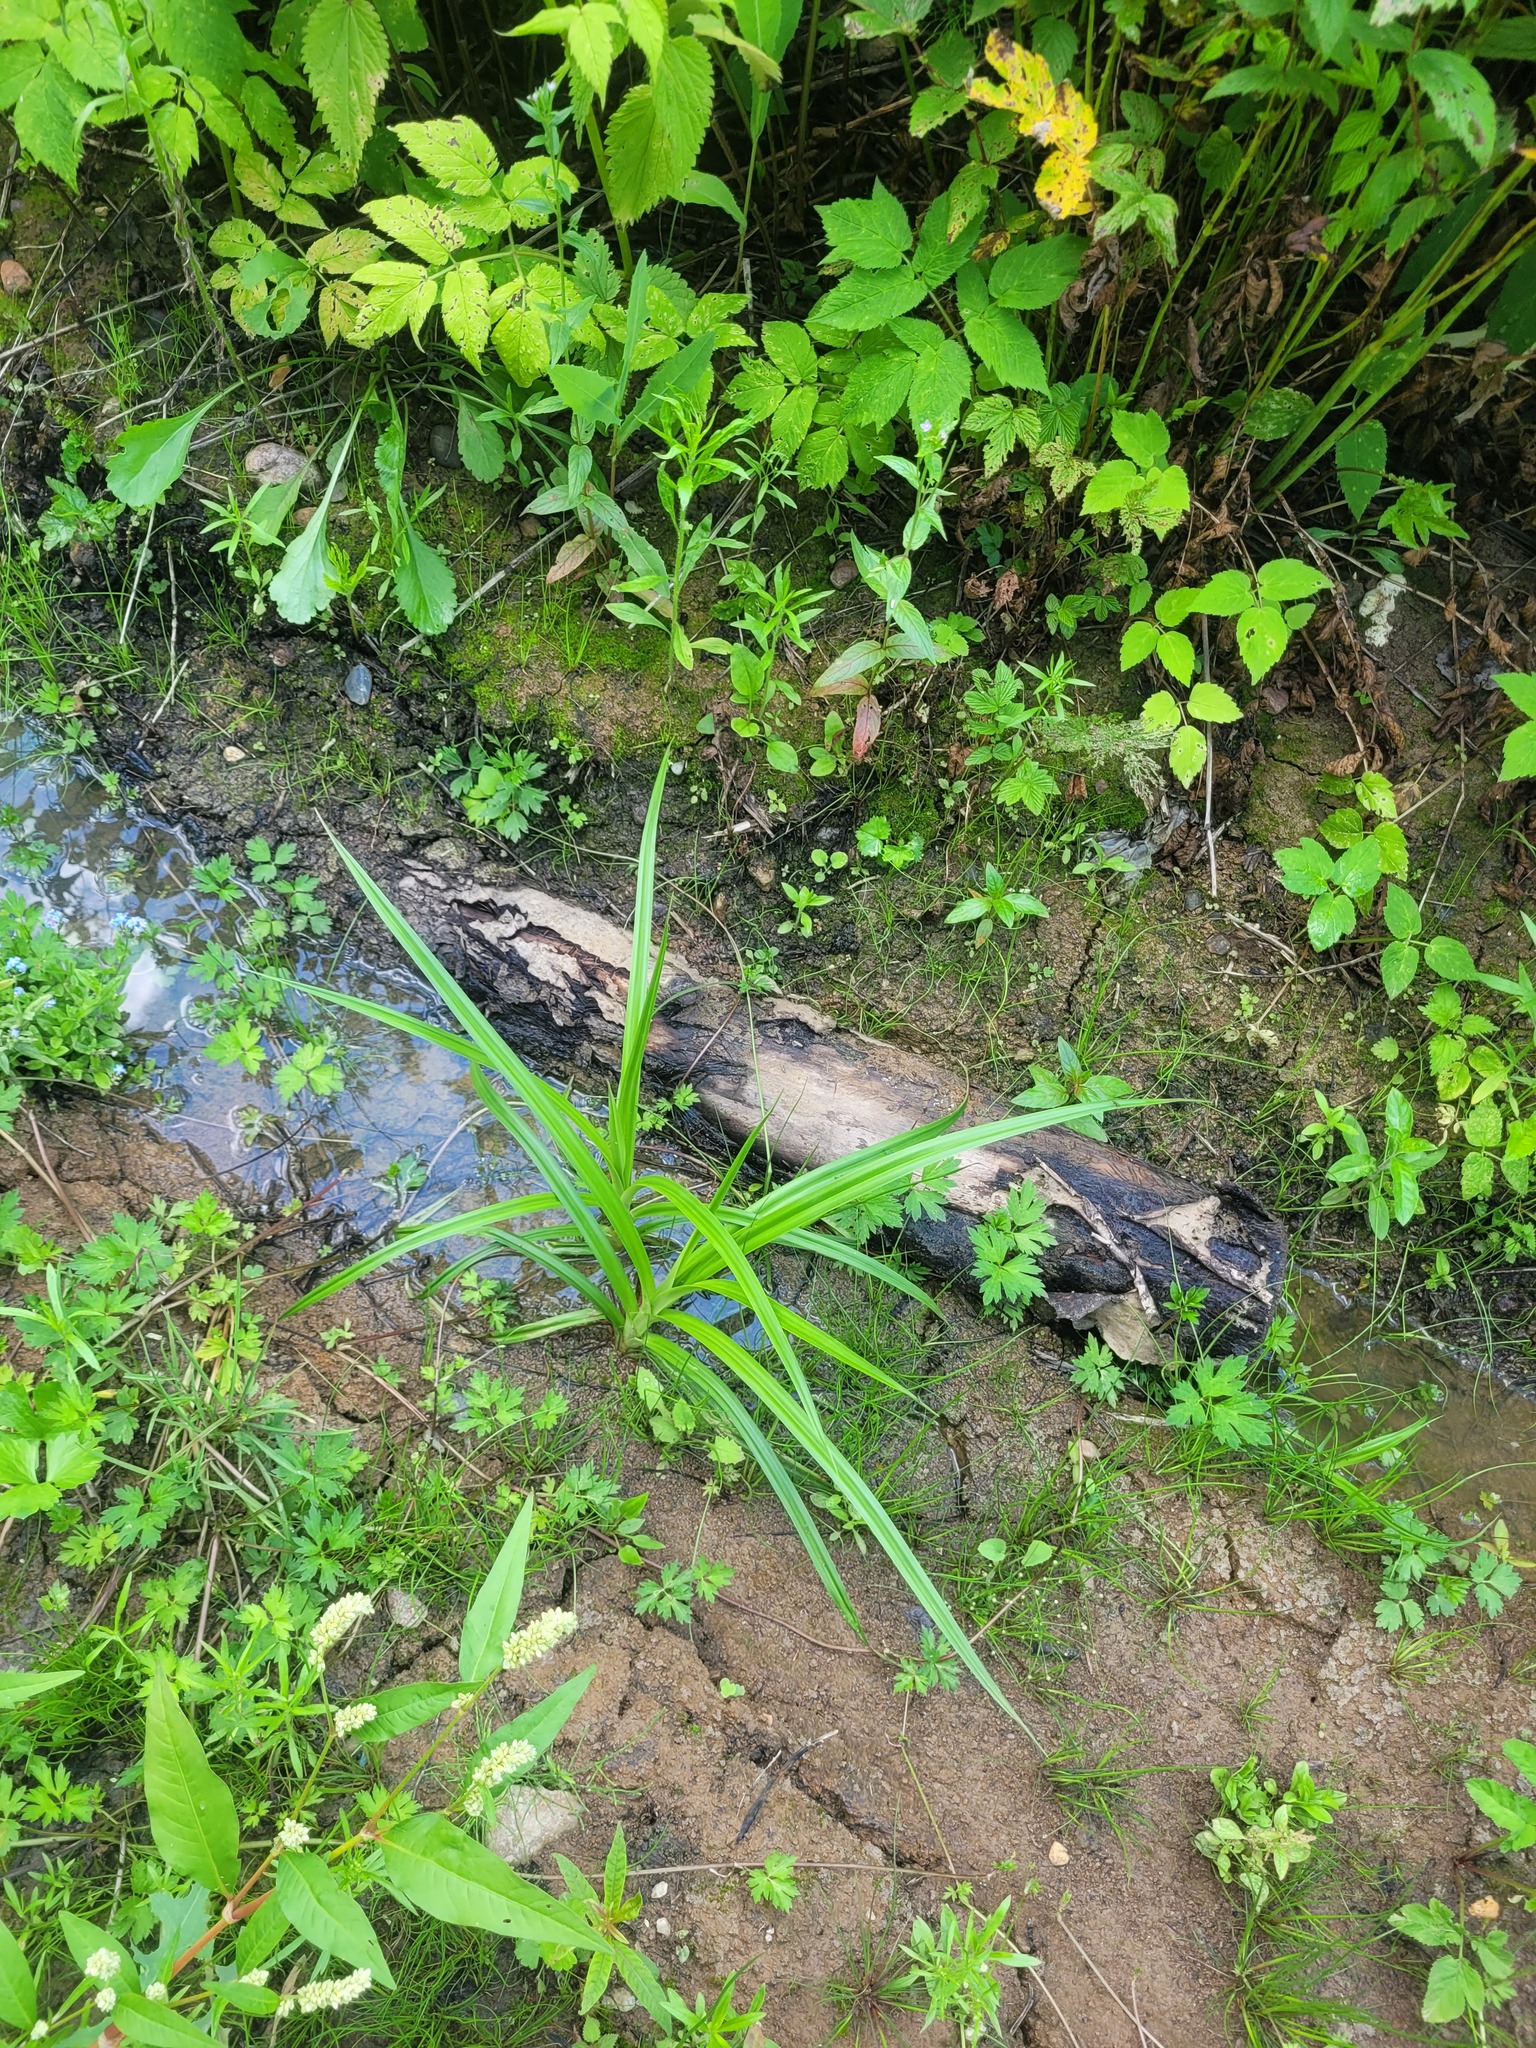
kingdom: Plantae
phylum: Tracheophyta
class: Liliopsida
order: Poales
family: Cyperaceae
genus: Scirpus
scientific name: Scirpus sylvaticus
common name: Wood club-rush
